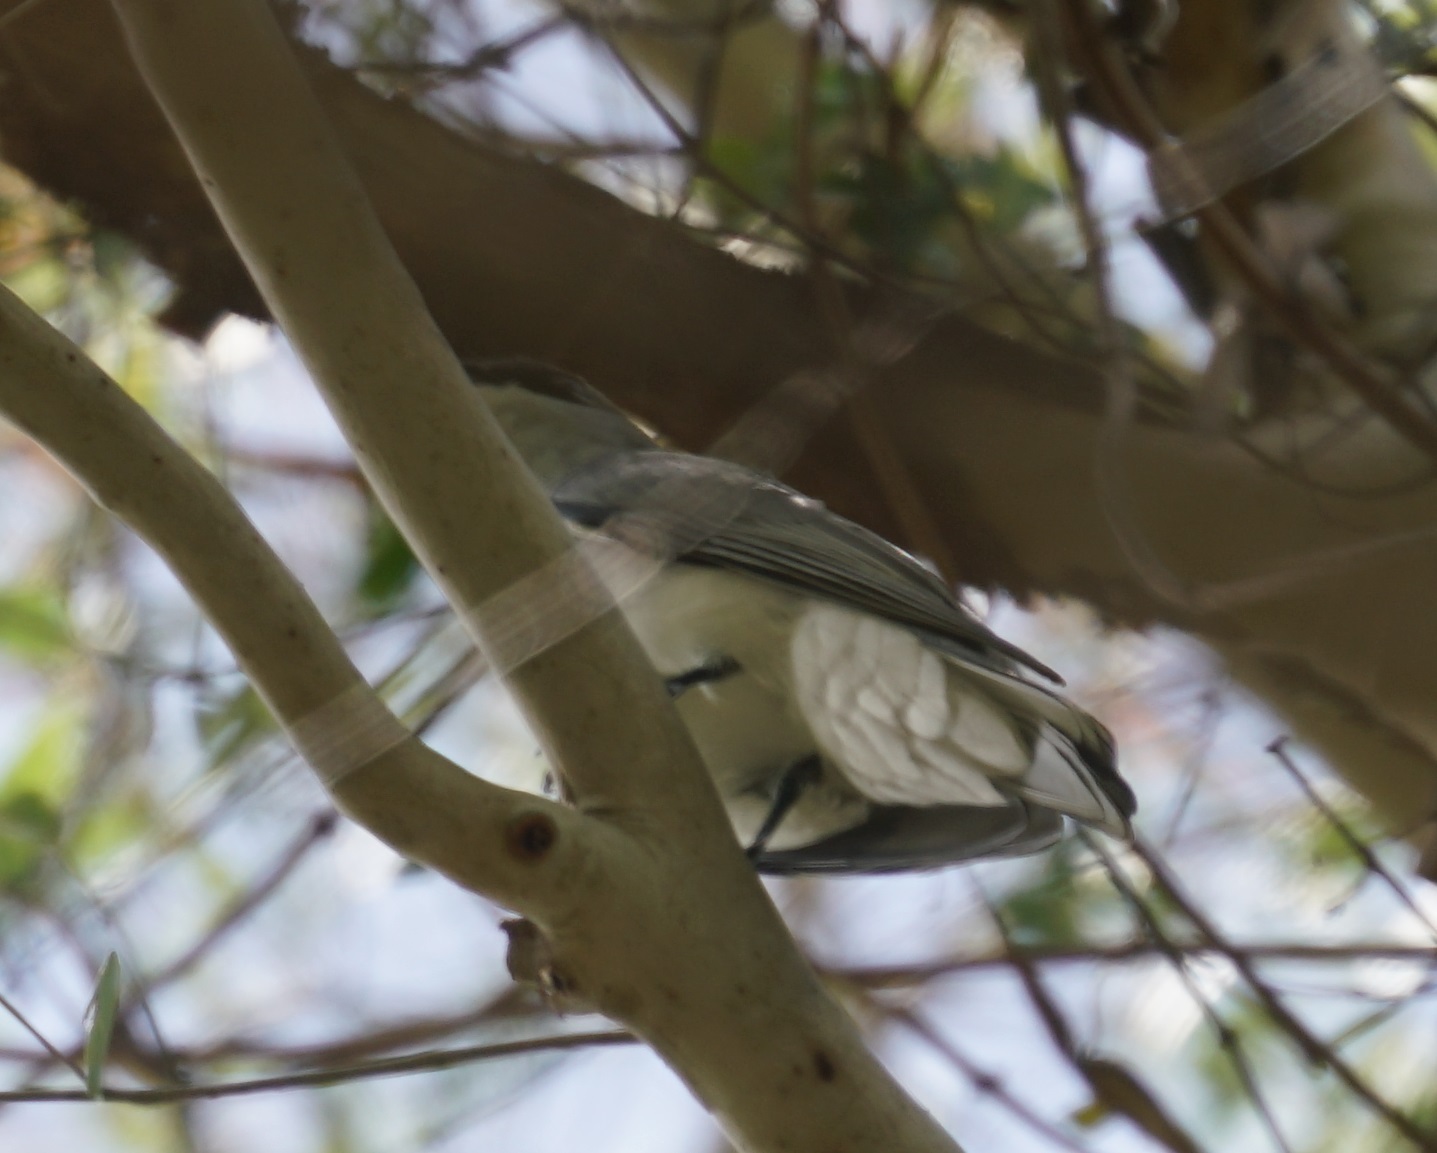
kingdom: Animalia
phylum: Chordata
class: Aves
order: Passeriformes
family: Campephagidae
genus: Coracina
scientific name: Coracina papuensis
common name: White-bellied cuckooshrike
